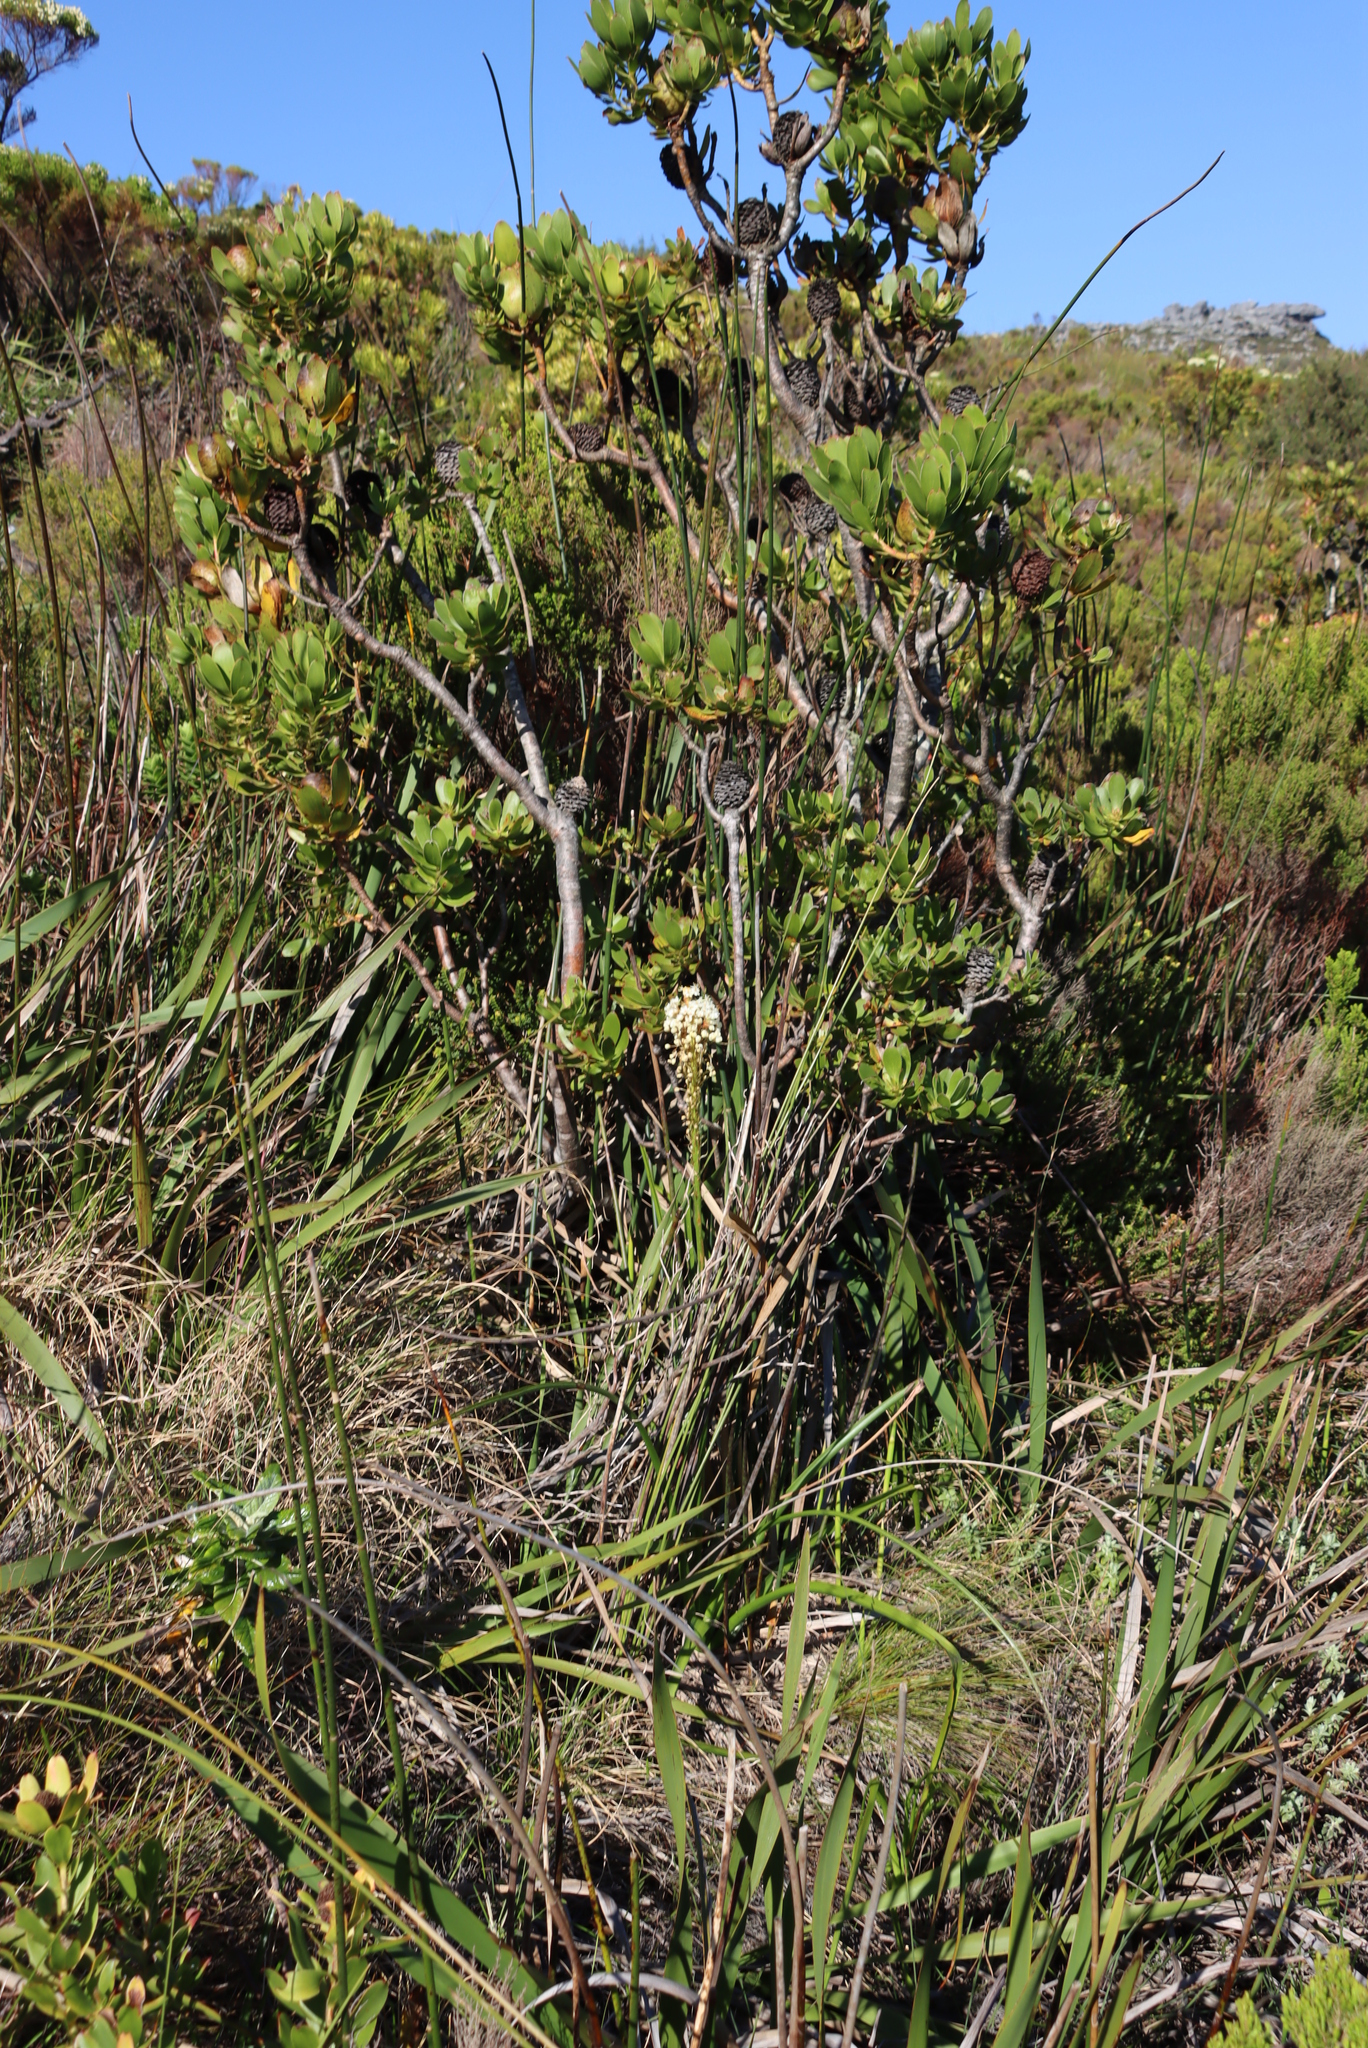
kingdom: Plantae
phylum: Tracheophyta
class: Magnoliopsida
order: Proteales
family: Proteaceae
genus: Leucadendron
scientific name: Leucadendron strobilinum
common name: Mountain rose
